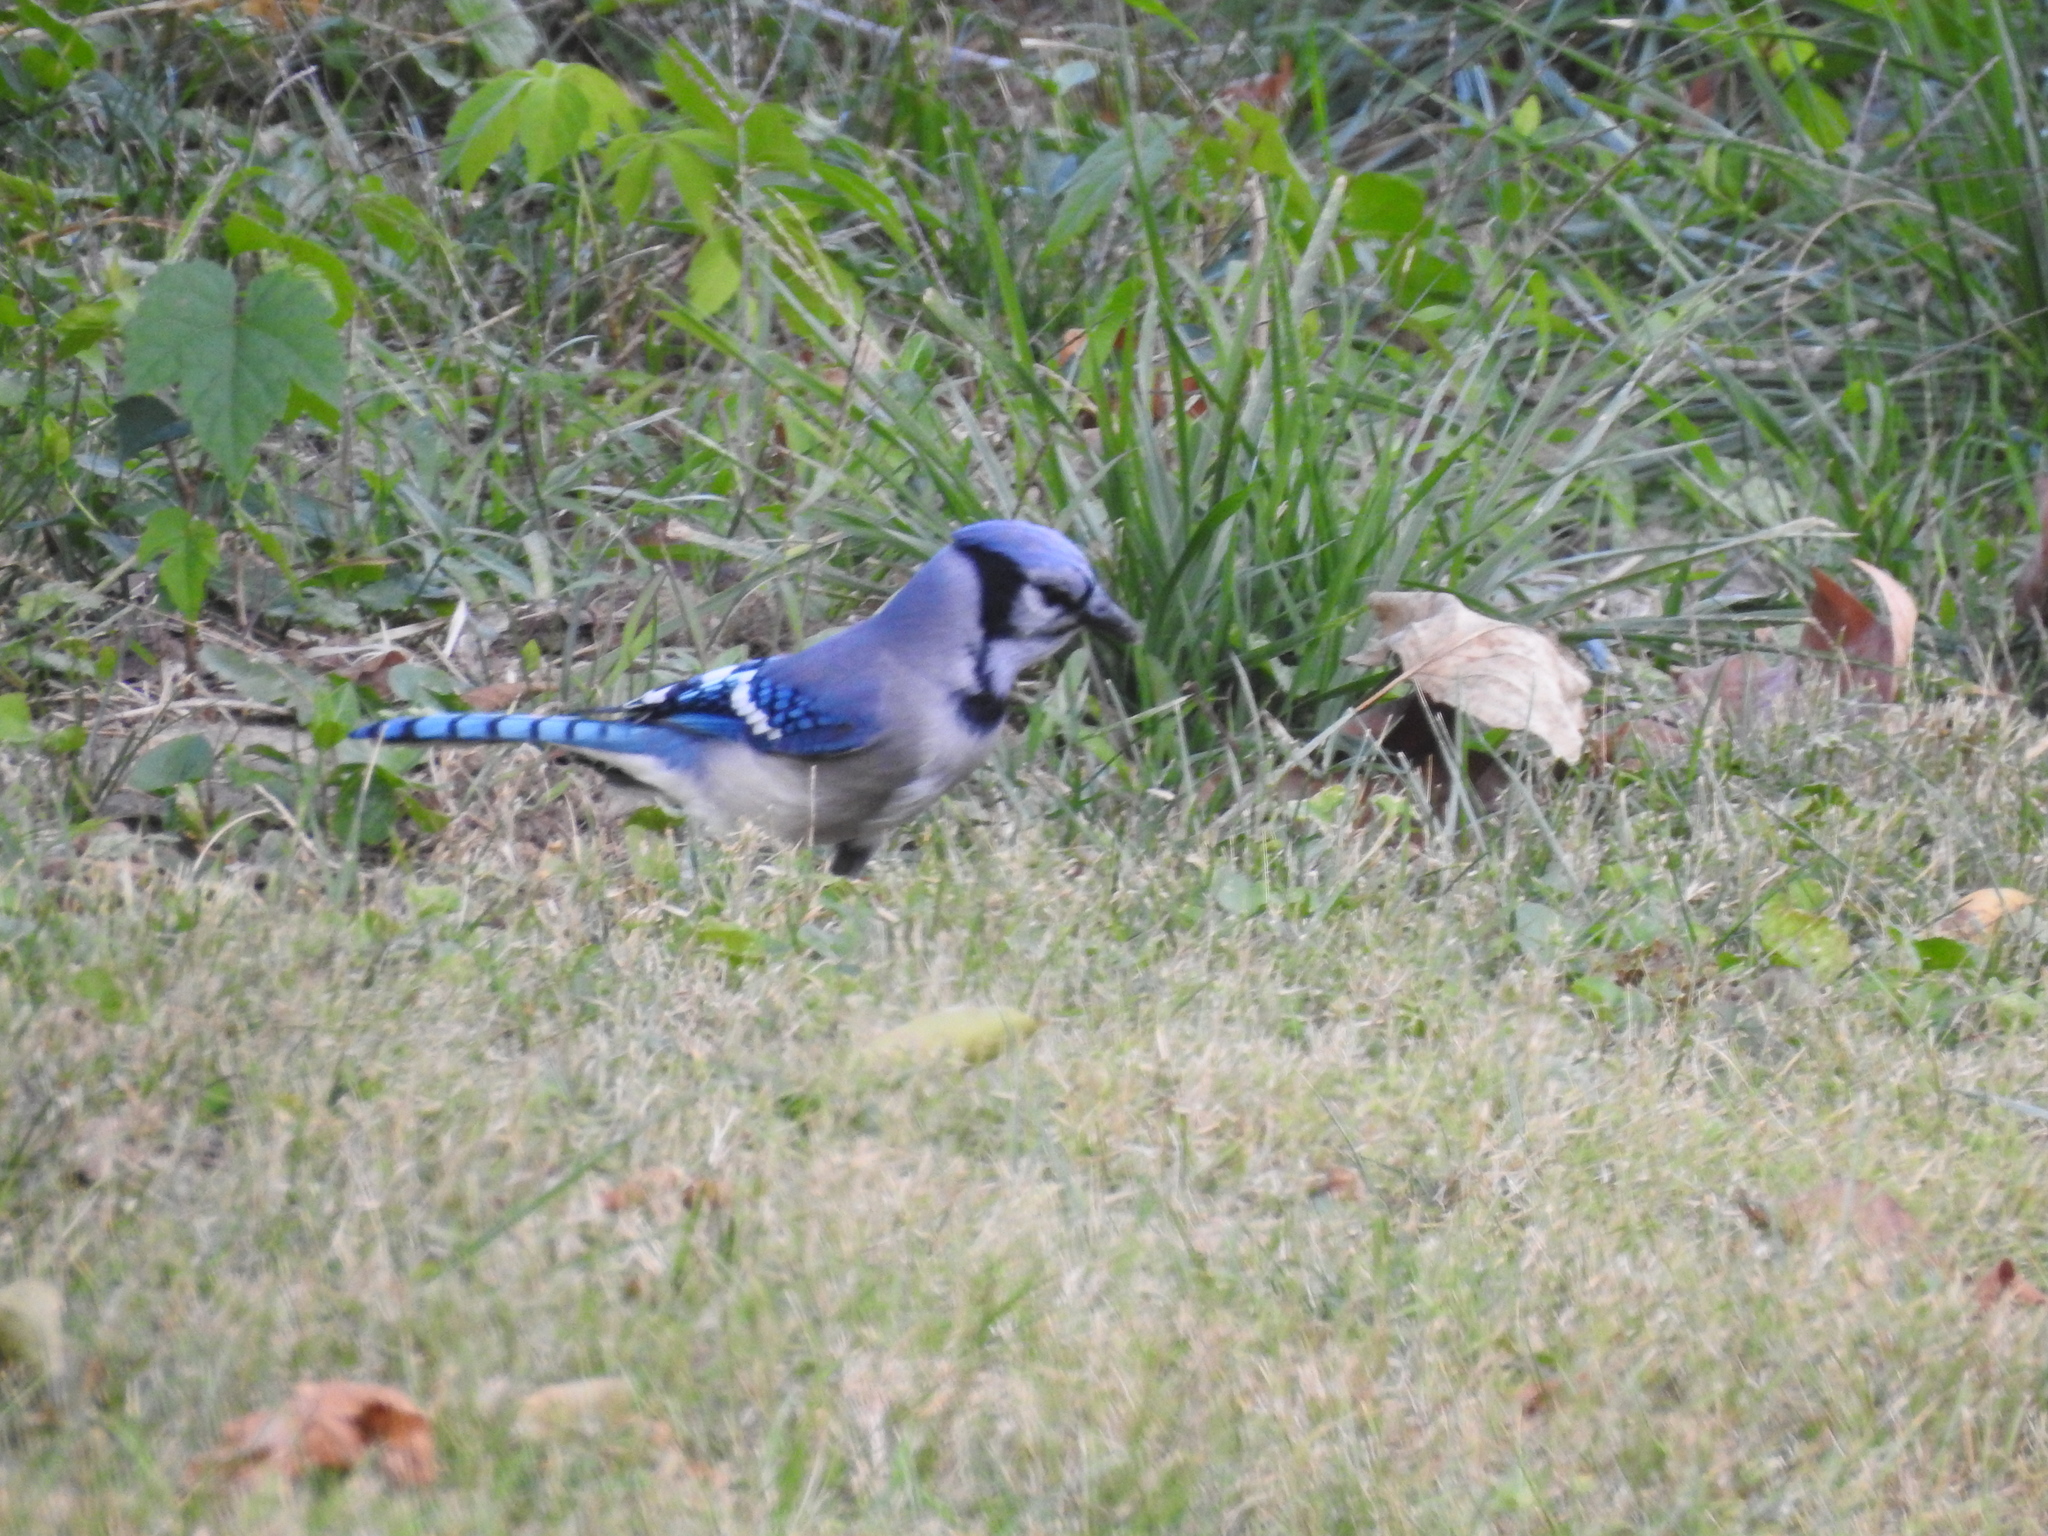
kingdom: Animalia
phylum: Chordata
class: Aves
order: Passeriformes
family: Corvidae
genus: Cyanocitta
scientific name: Cyanocitta cristata
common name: Blue jay
